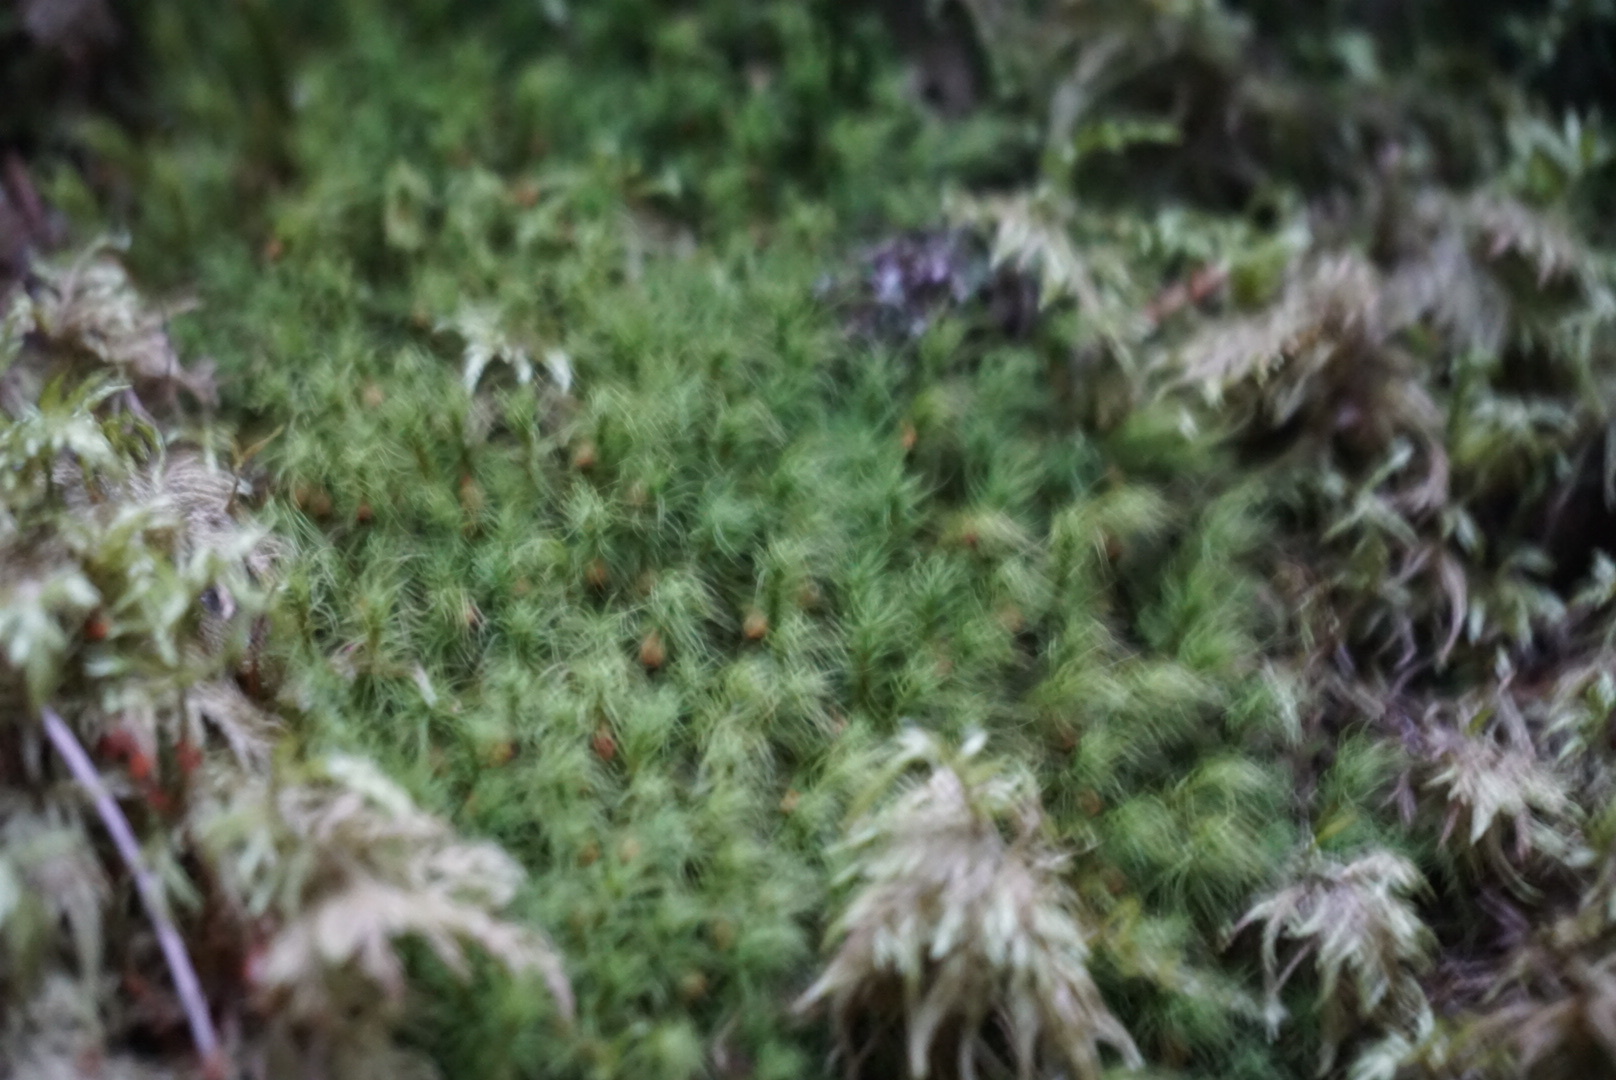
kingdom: Plantae
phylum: Bryophyta
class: Bryopsida
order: Bartramiales
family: Bartramiaceae
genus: Bartramia
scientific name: Bartramia halleriana
